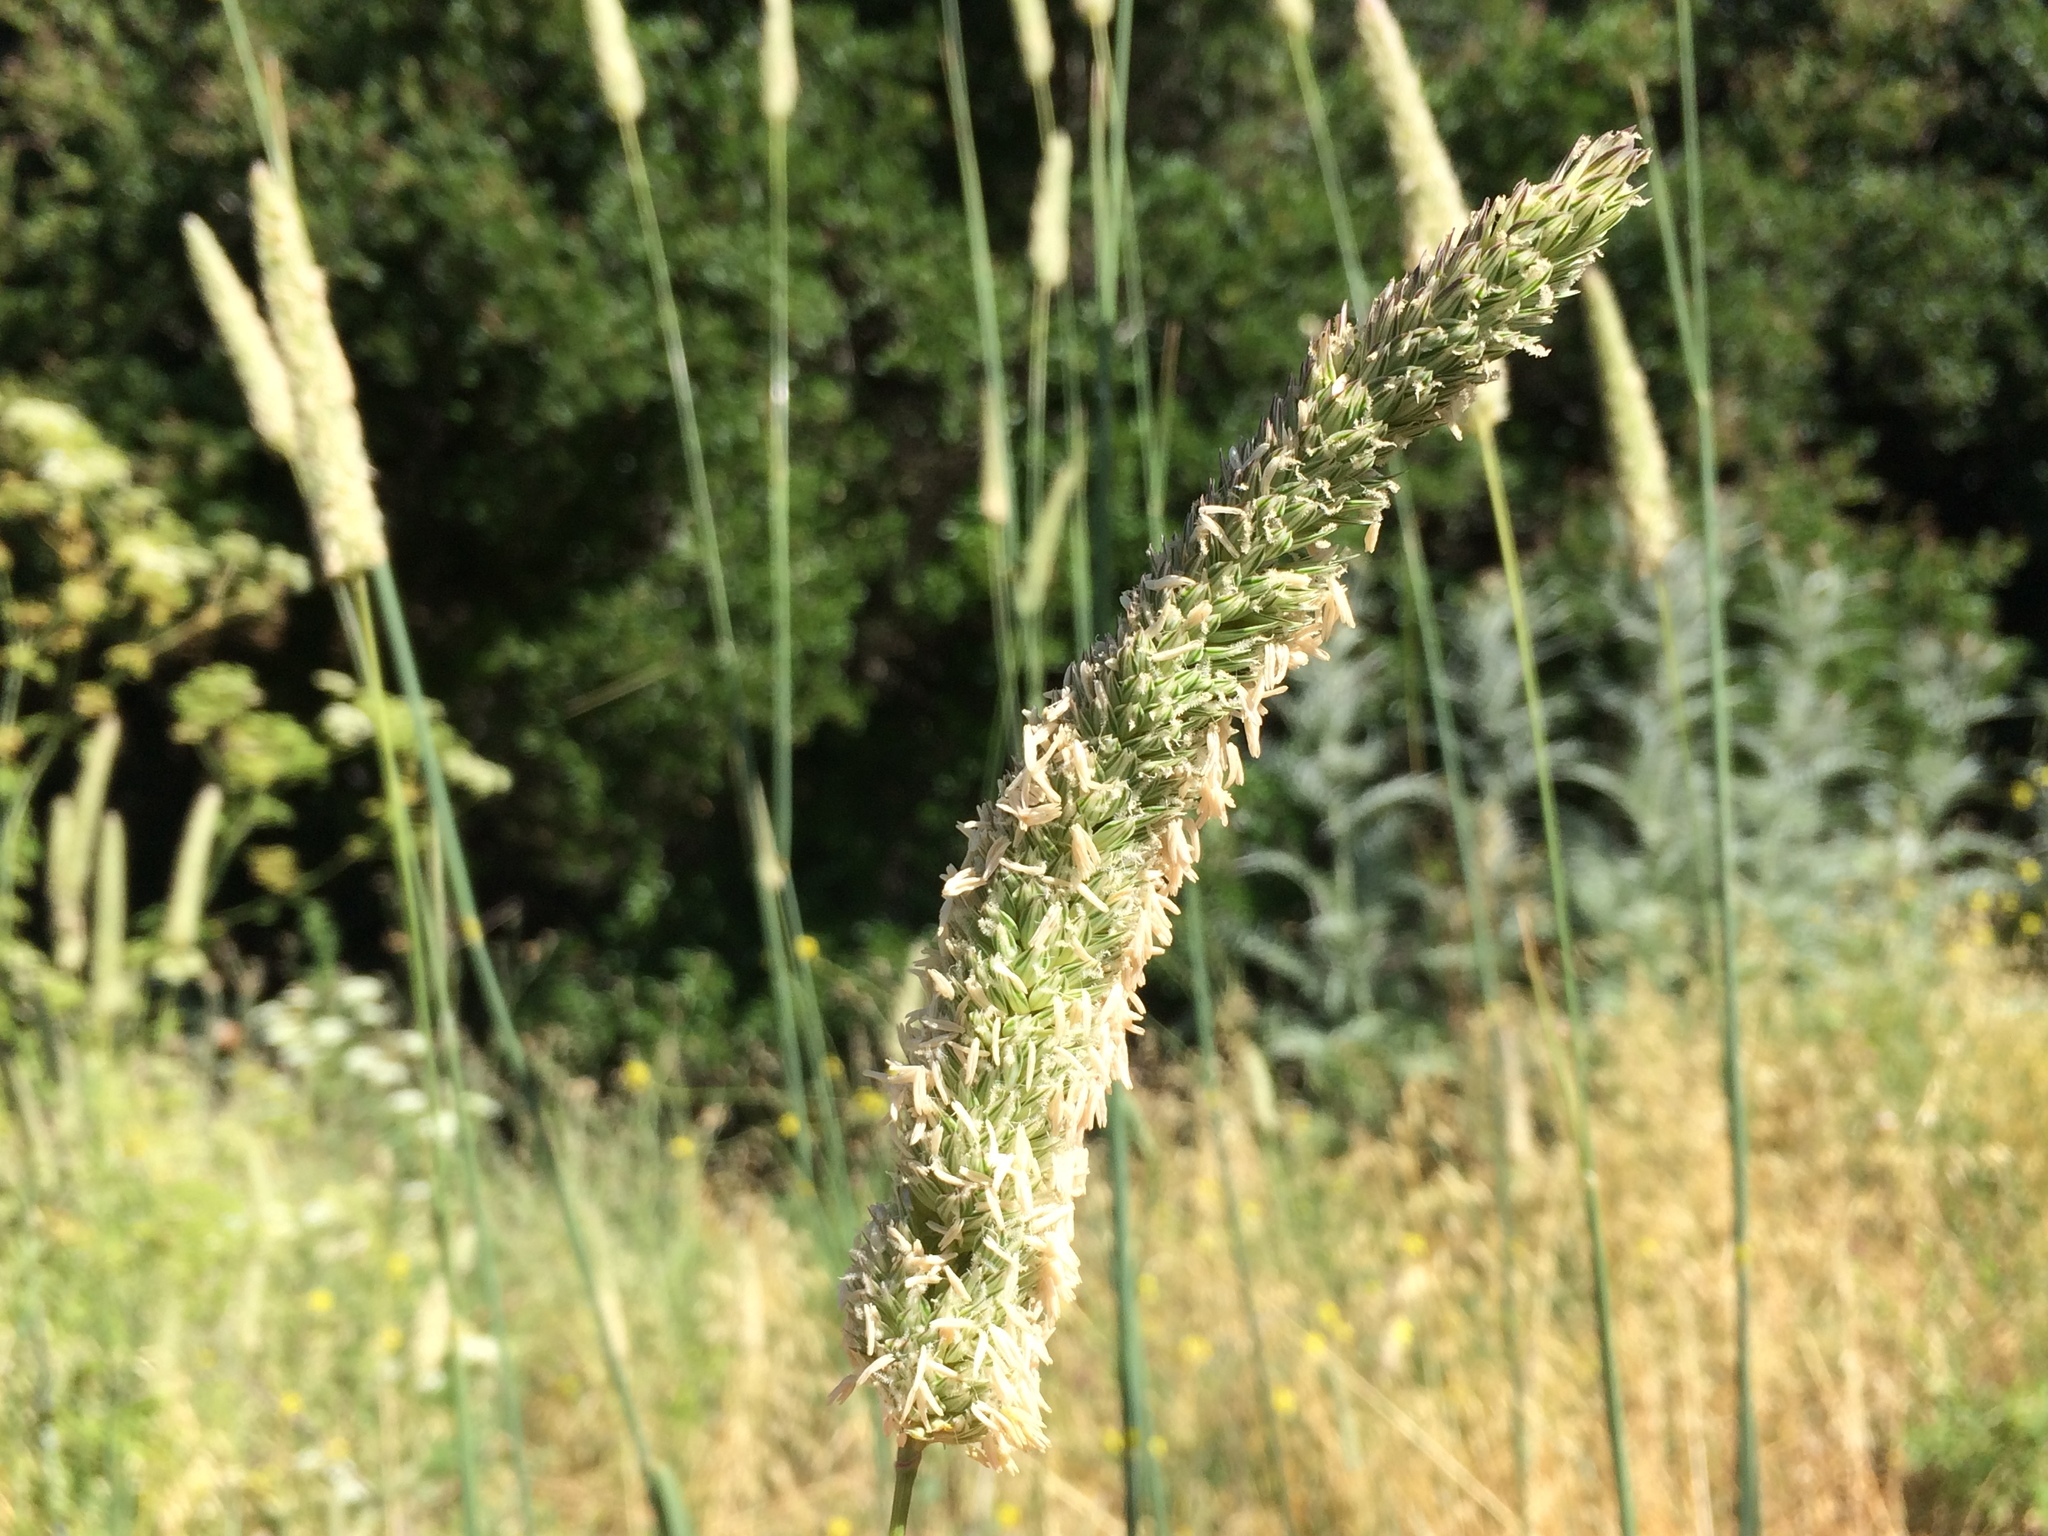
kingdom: Plantae
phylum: Tracheophyta
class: Liliopsida
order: Poales
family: Poaceae
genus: Phalaris
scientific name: Phalaris aquatica
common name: Bulbous canary-grass
